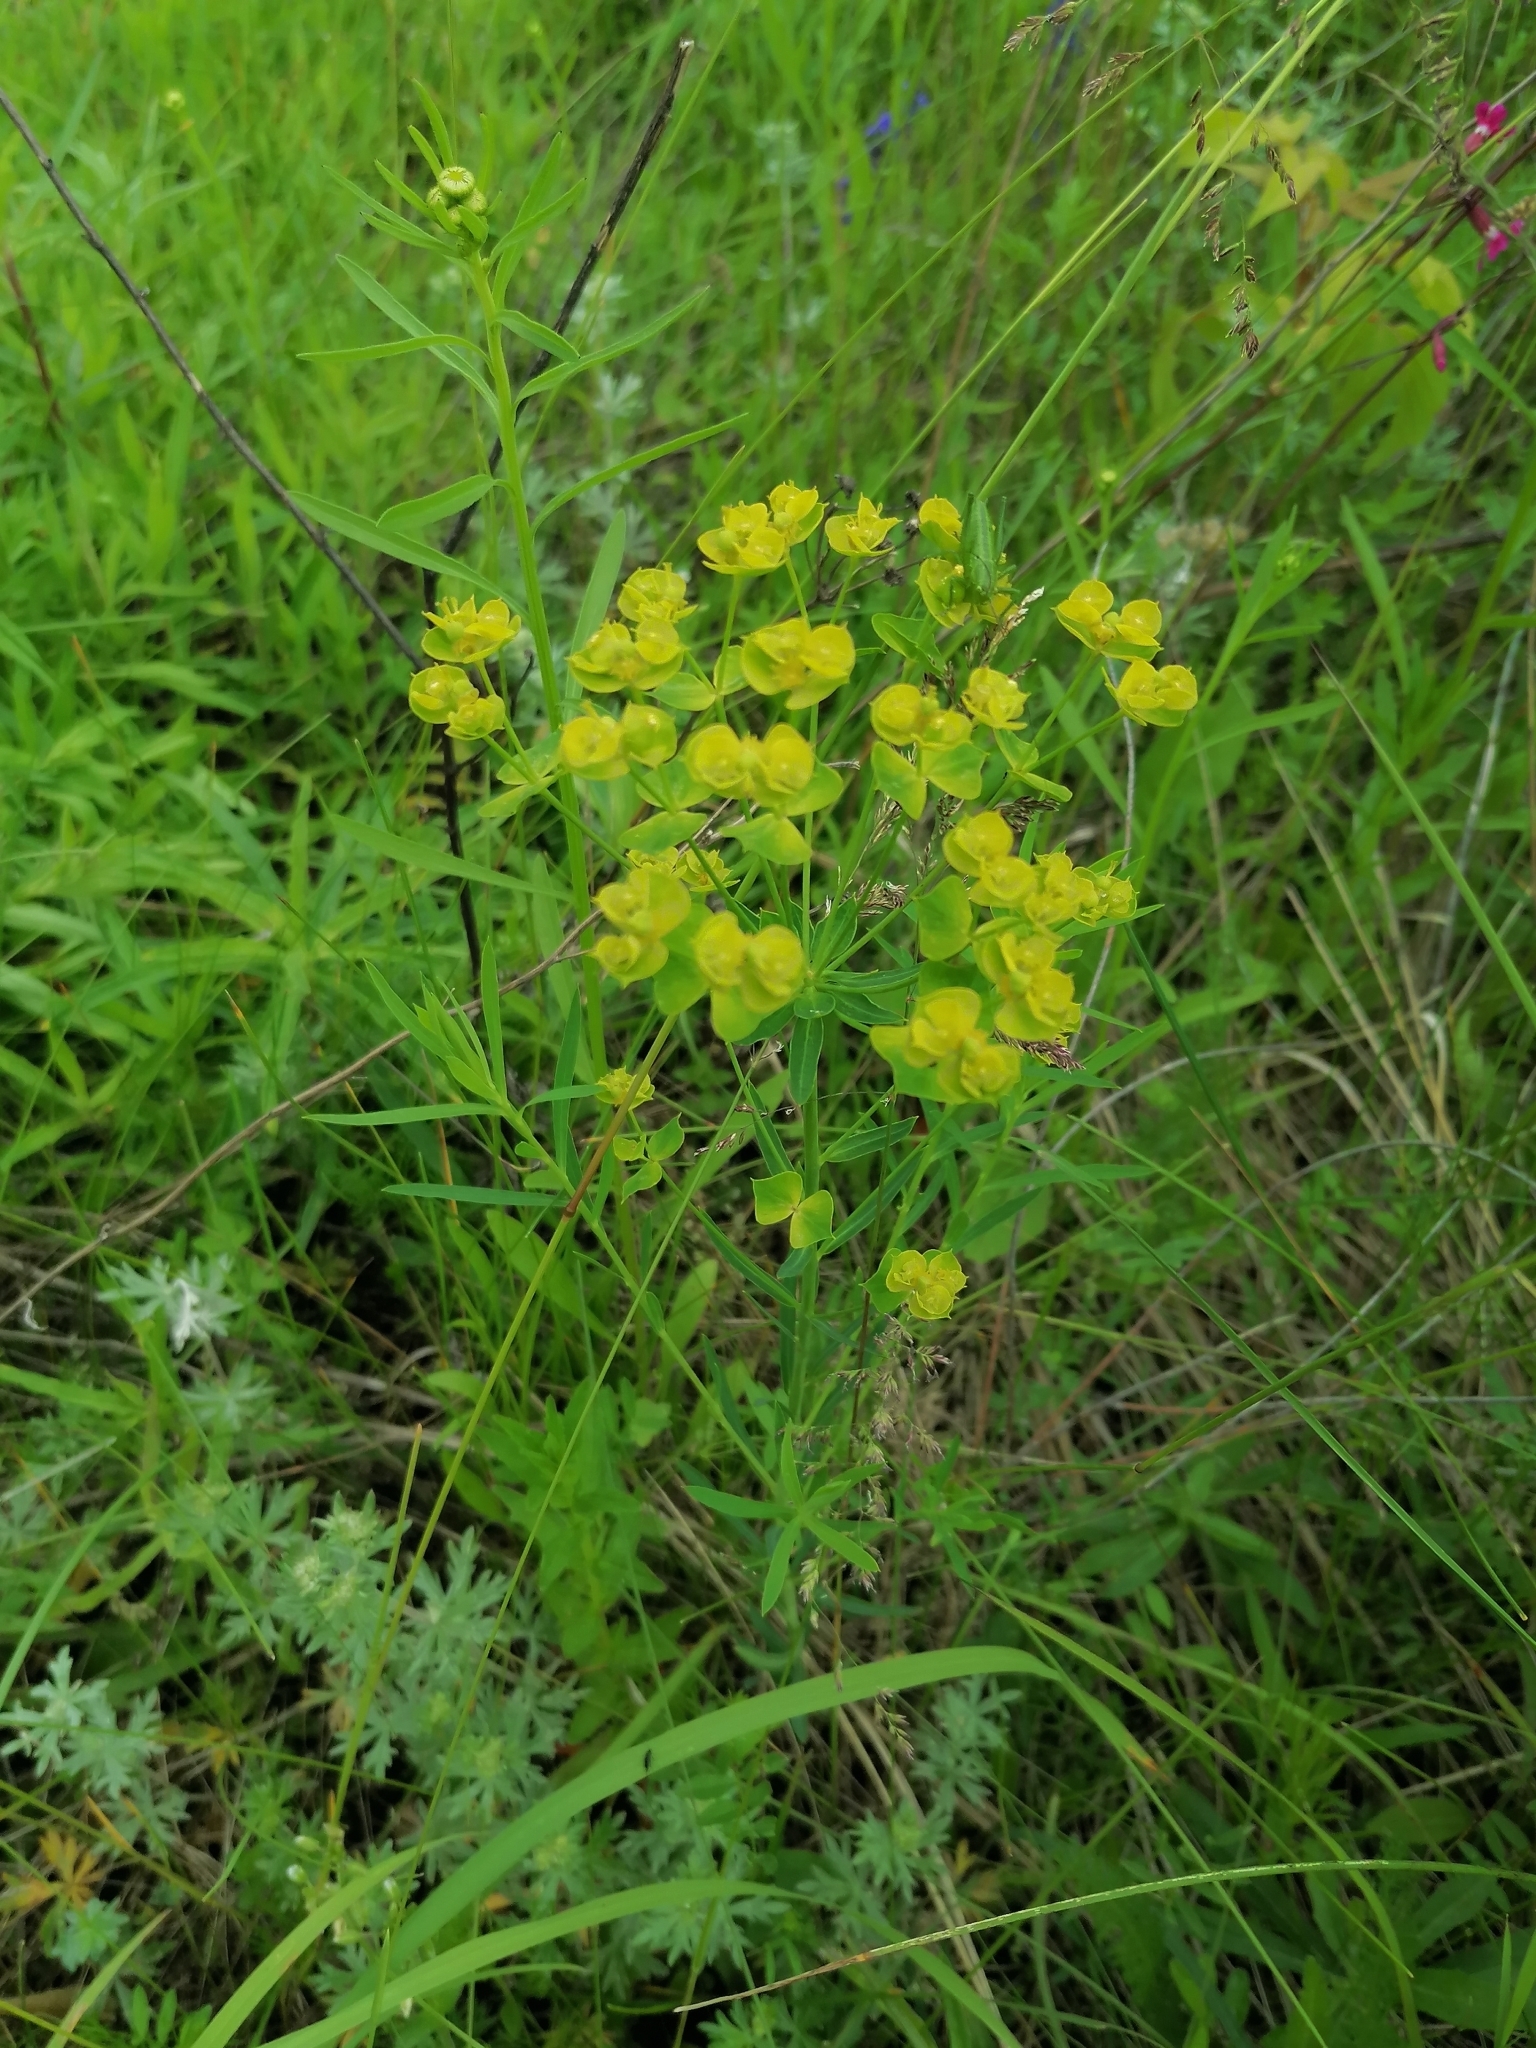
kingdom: Plantae
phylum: Tracheophyta
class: Magnoliopsida
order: Malpighiales
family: Euphorbiaceae
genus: Euphorbia
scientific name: Euphorbia esula
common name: Leafy spurge
